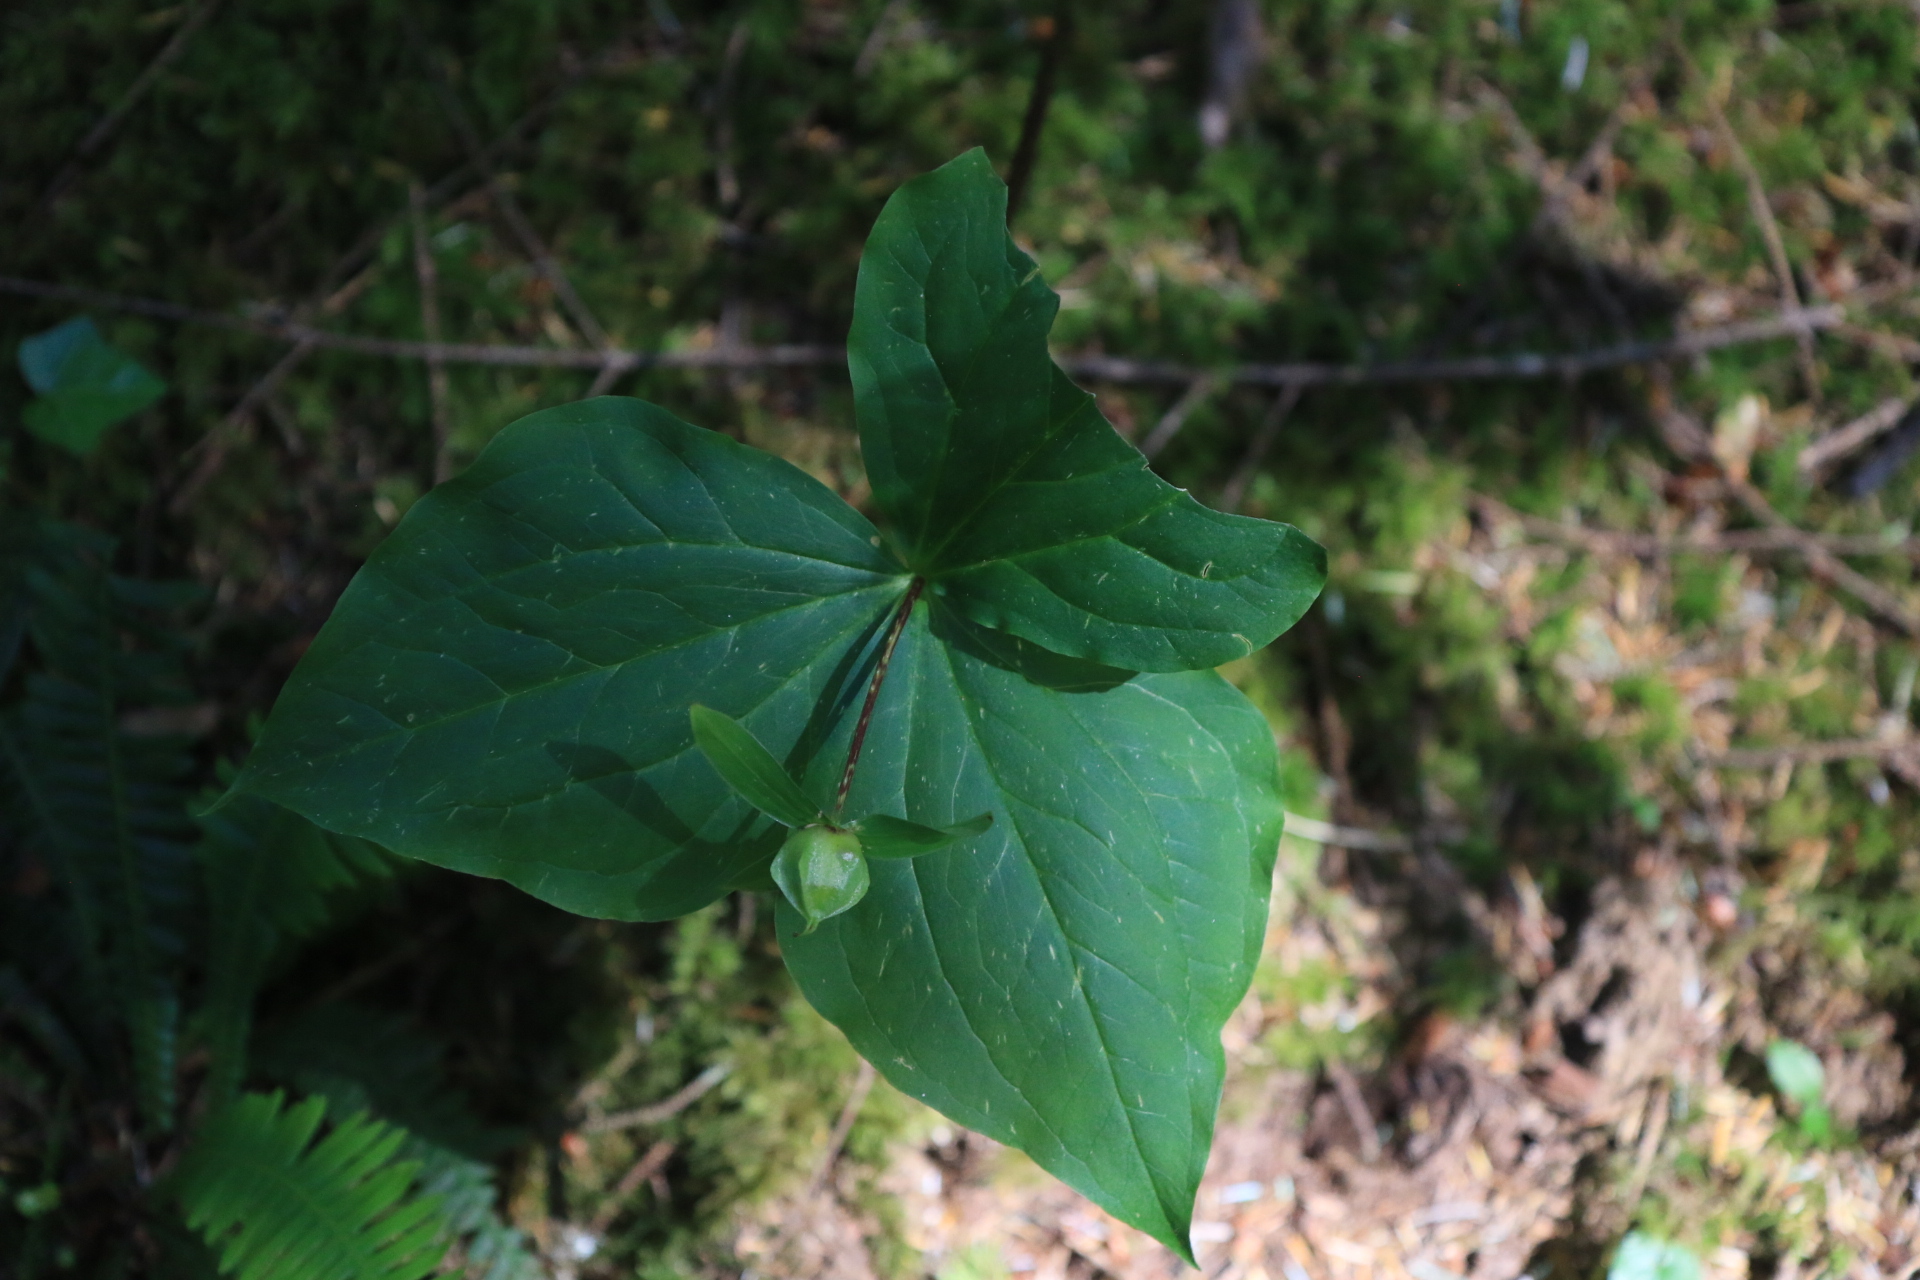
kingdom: Plantae
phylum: Tracheophyta
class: Liliopsida
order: Liliales
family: Melanthiaceae
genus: Trillium
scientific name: Trillium ovatum
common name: Pacific trillium
